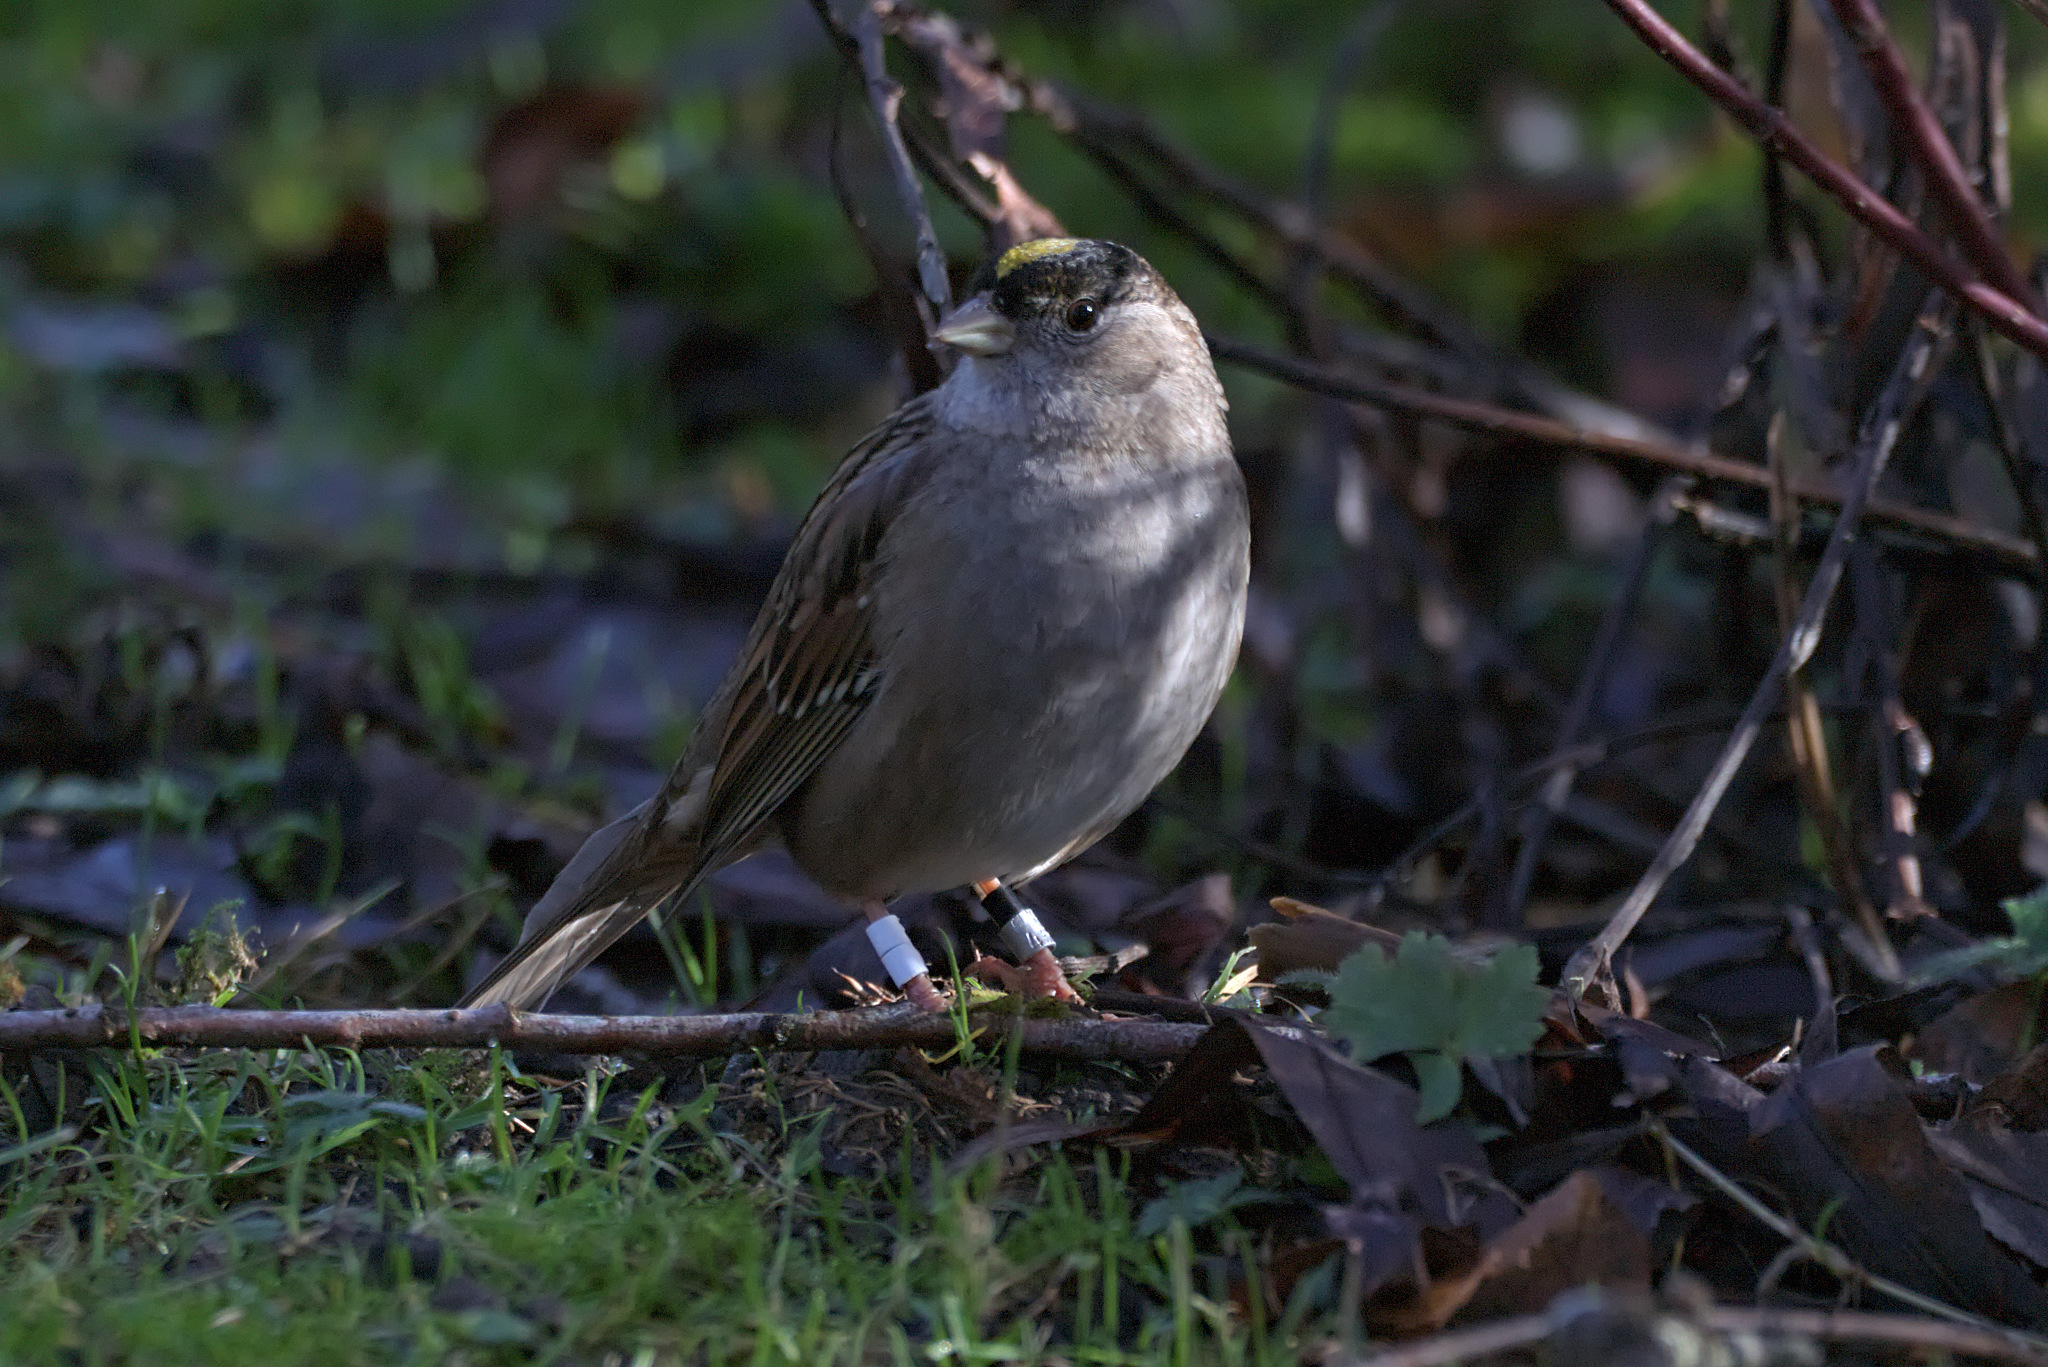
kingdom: Animalia
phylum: Chordata
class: Aves
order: Passeriformes
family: Passerellidae
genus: Zonotrichia
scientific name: Zonotrichia atricapilla
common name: Golden-crowned sparrow
